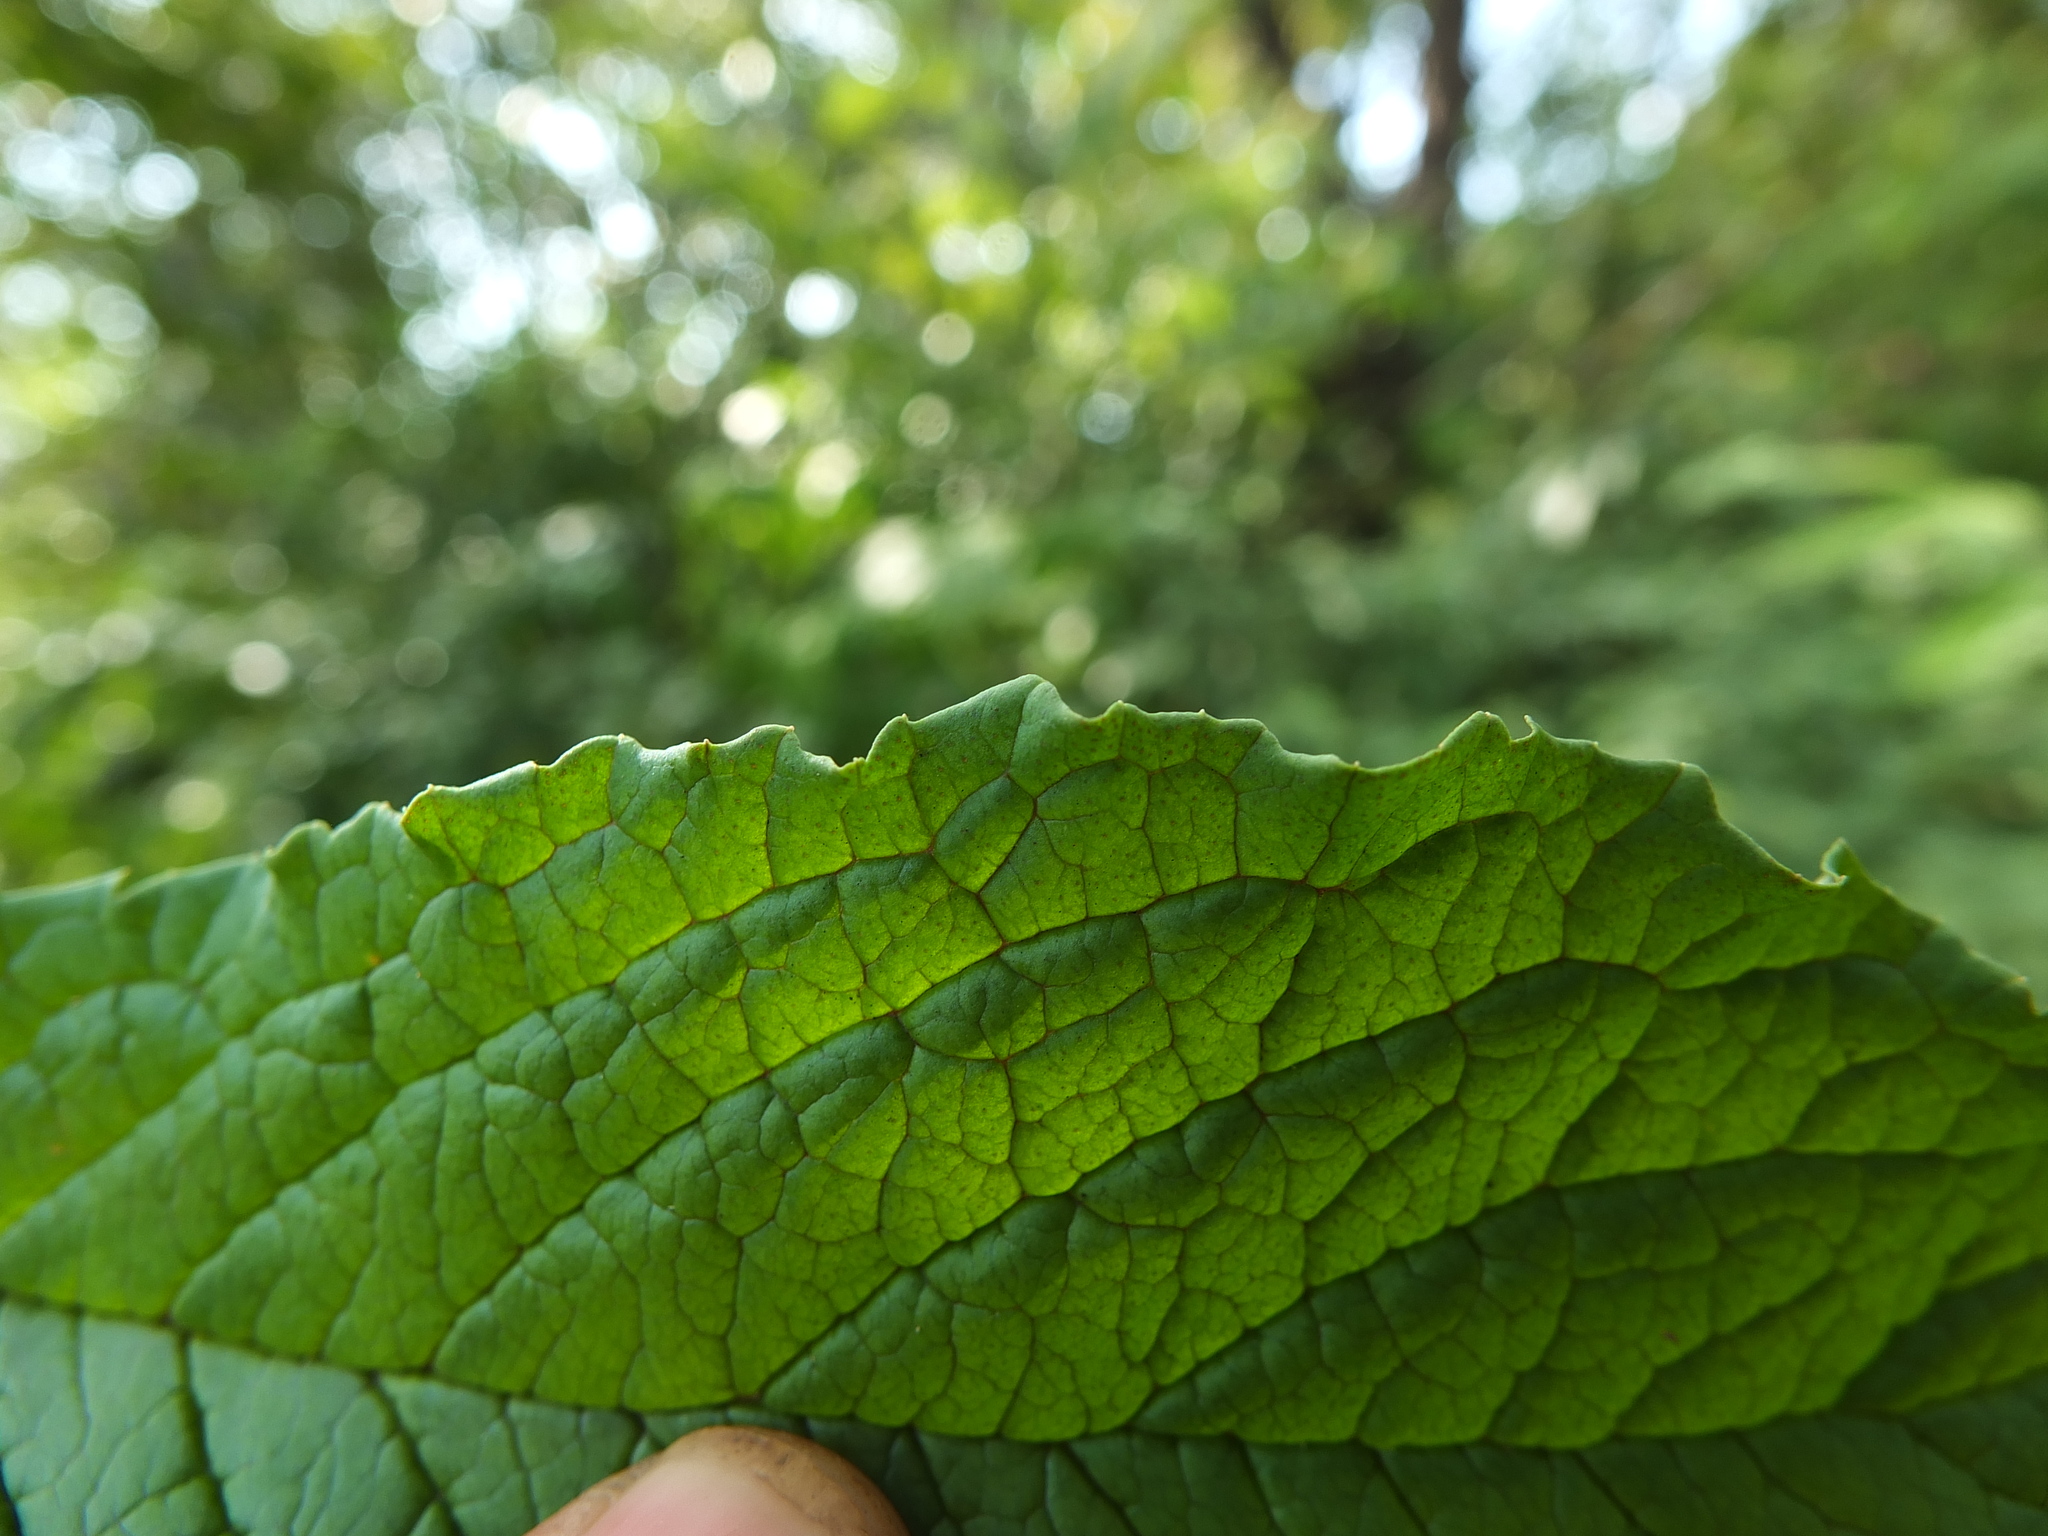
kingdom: Plantae
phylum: Tracheophyta
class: Magnoliopsida
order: Ericales
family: Primulaceae
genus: Embelia
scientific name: Embelia tsjeriam-cottam
